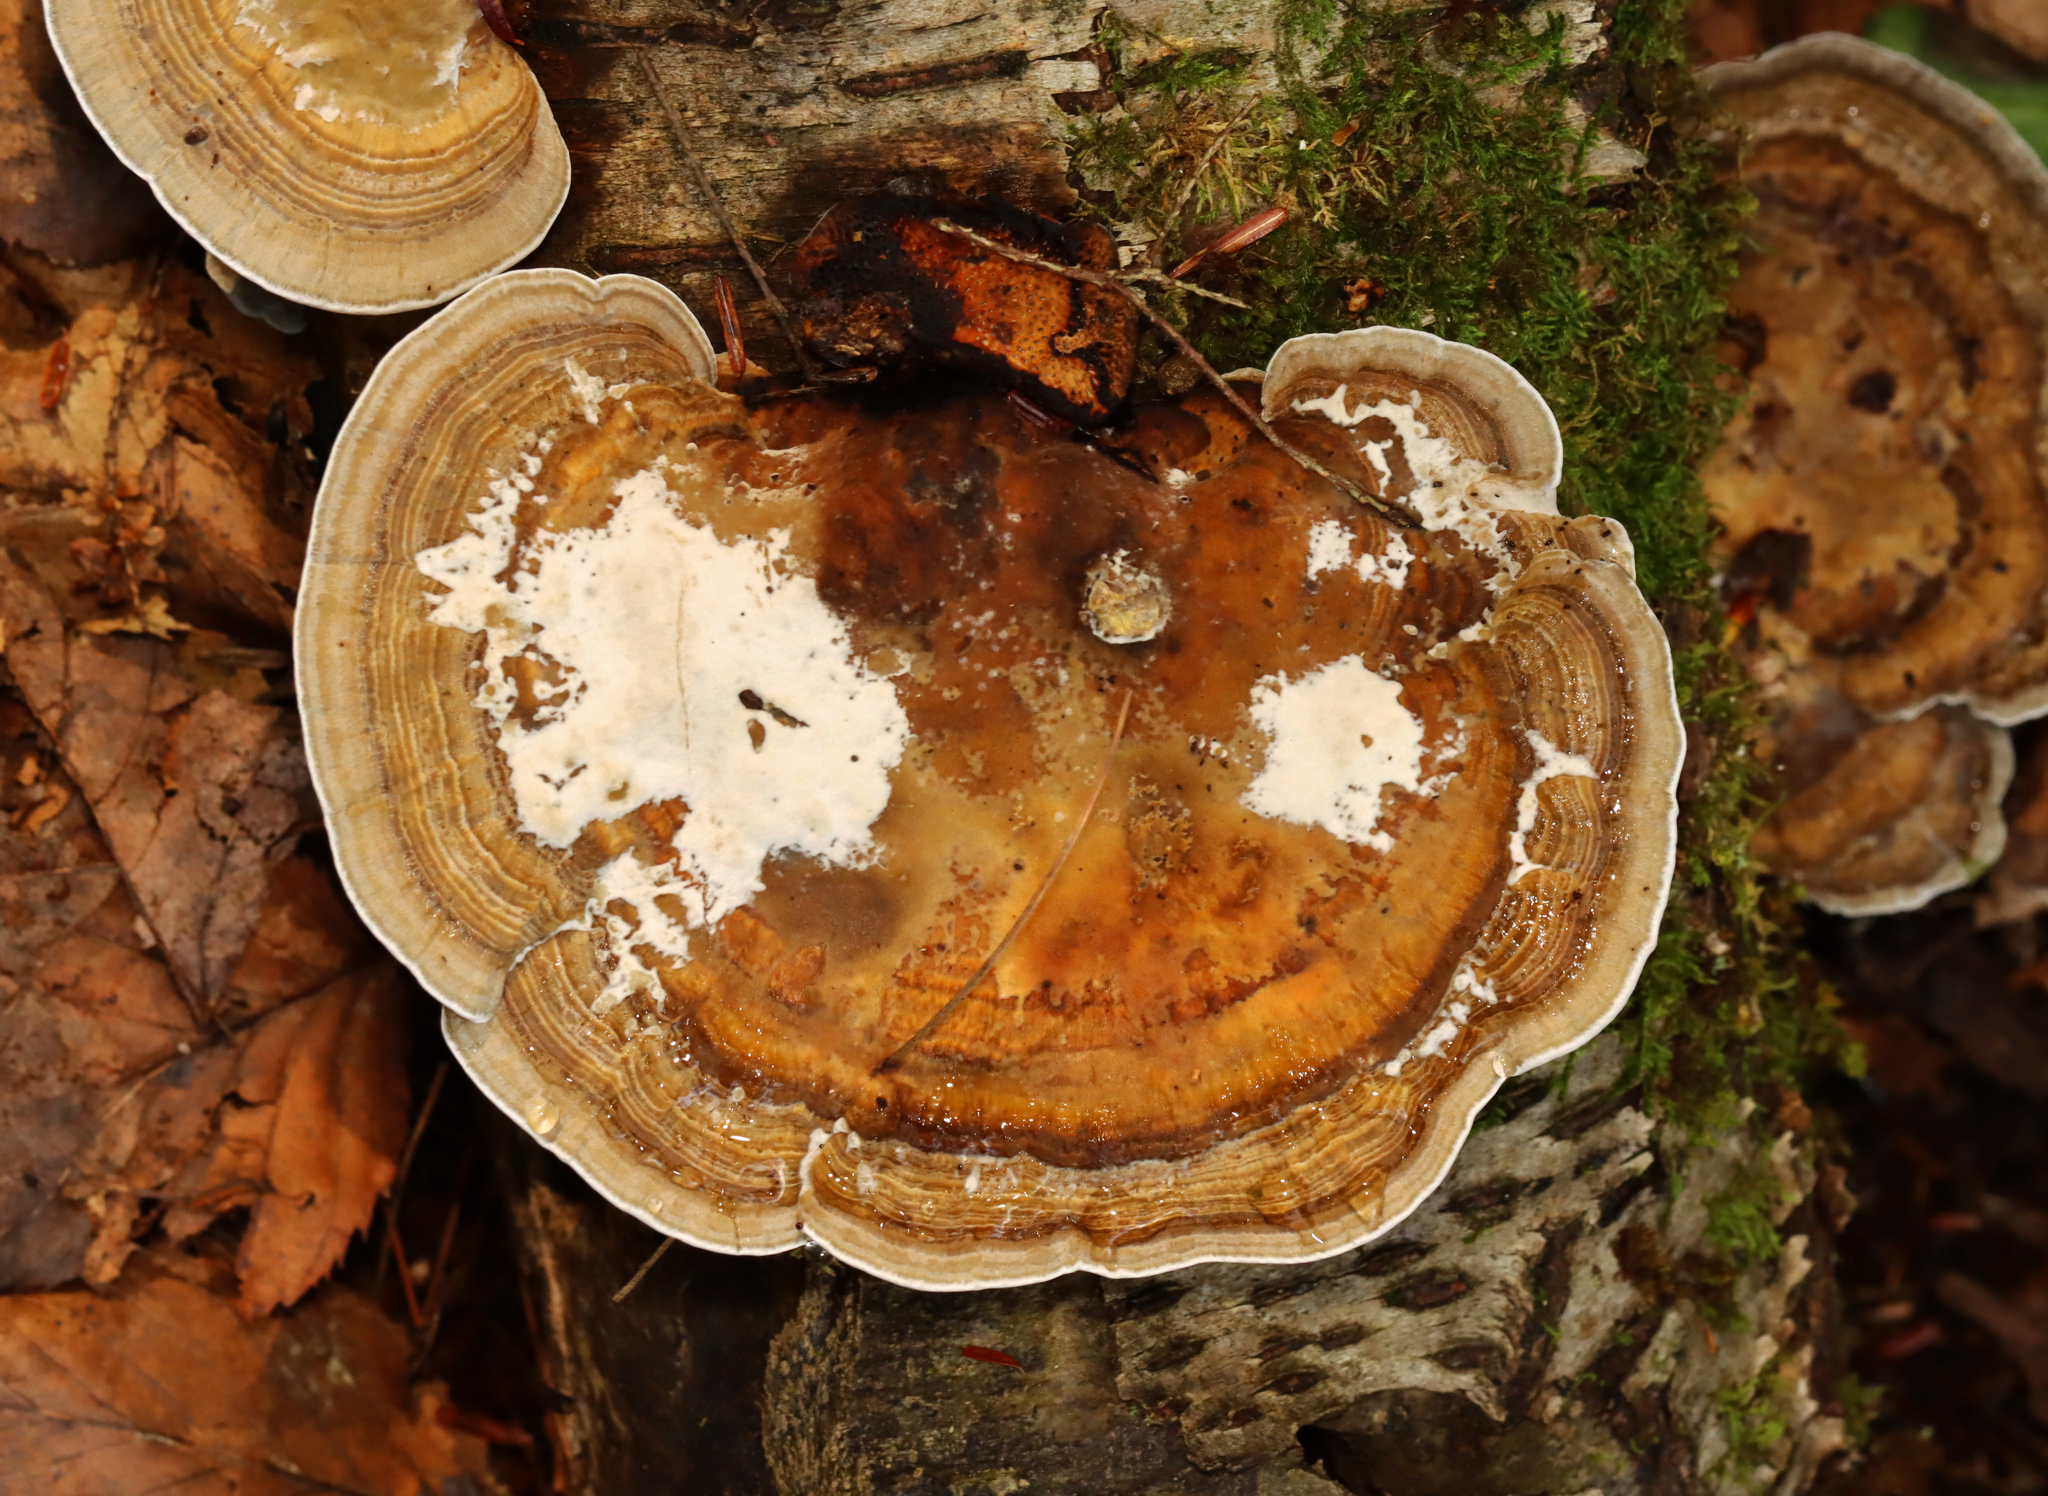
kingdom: Fungi
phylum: Basidiomycota
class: Agaricomycetes
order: Polyporales
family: Polyporaceae
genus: Daedaleopsis
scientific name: Daedaleopsis confragosa
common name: Blushing bracket
